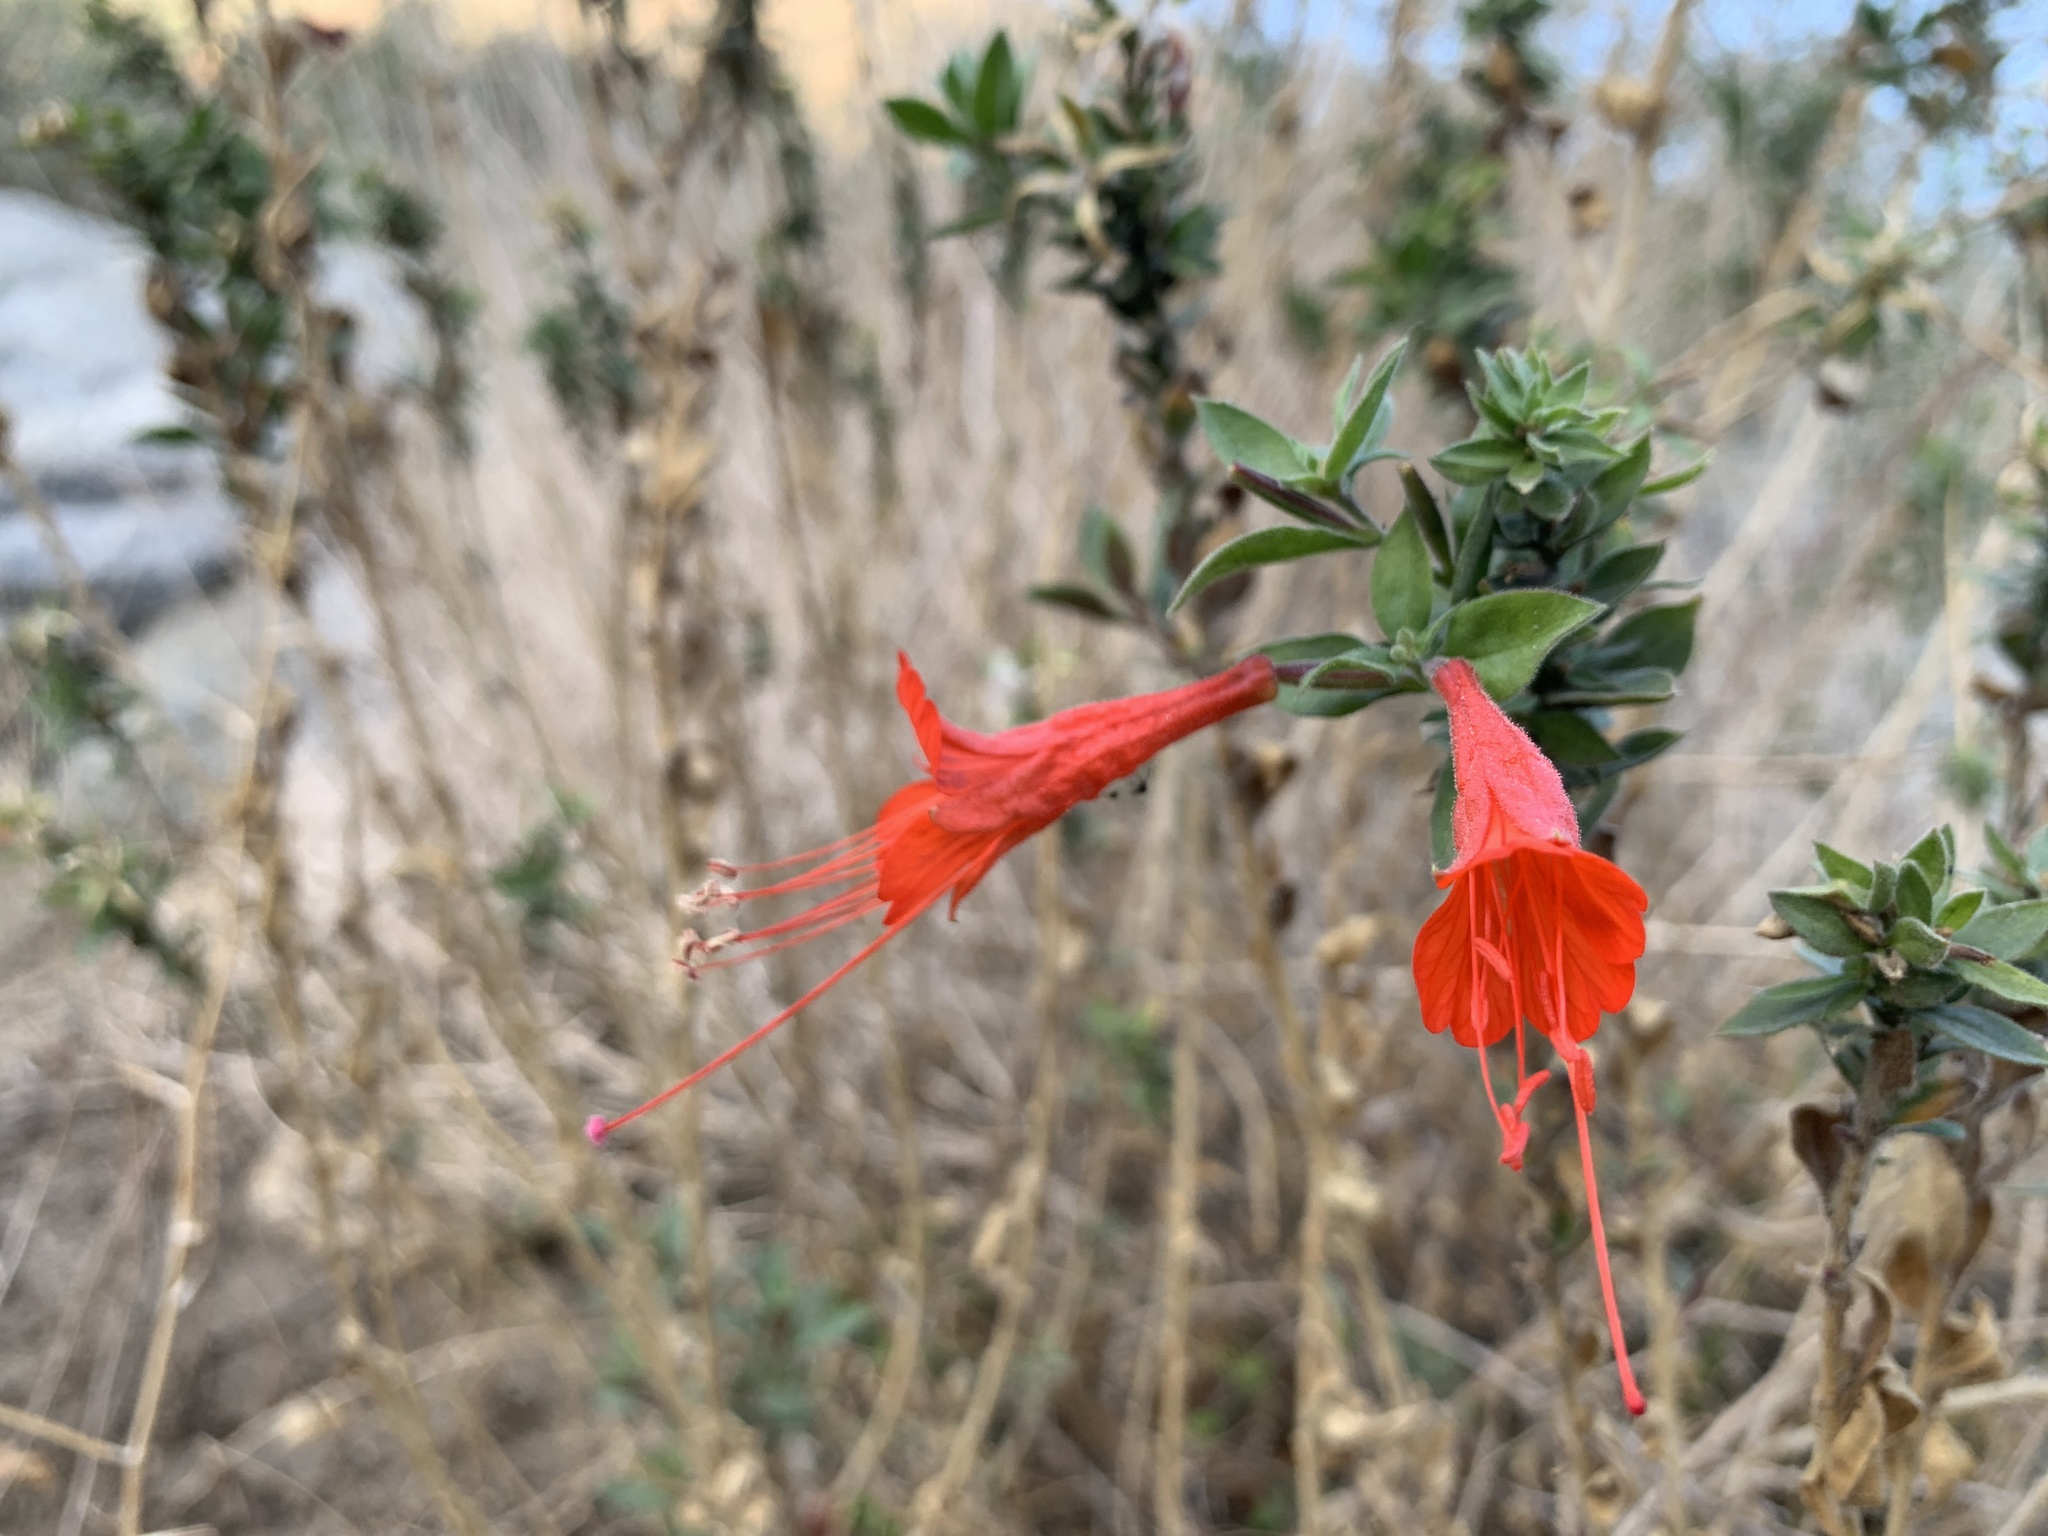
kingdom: Plantae
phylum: Tracheophyta
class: Magnoliopsida
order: Myrtales
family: Onagraceae
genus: Epilobium
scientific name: Epilobium canum
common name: California-fuchsia
